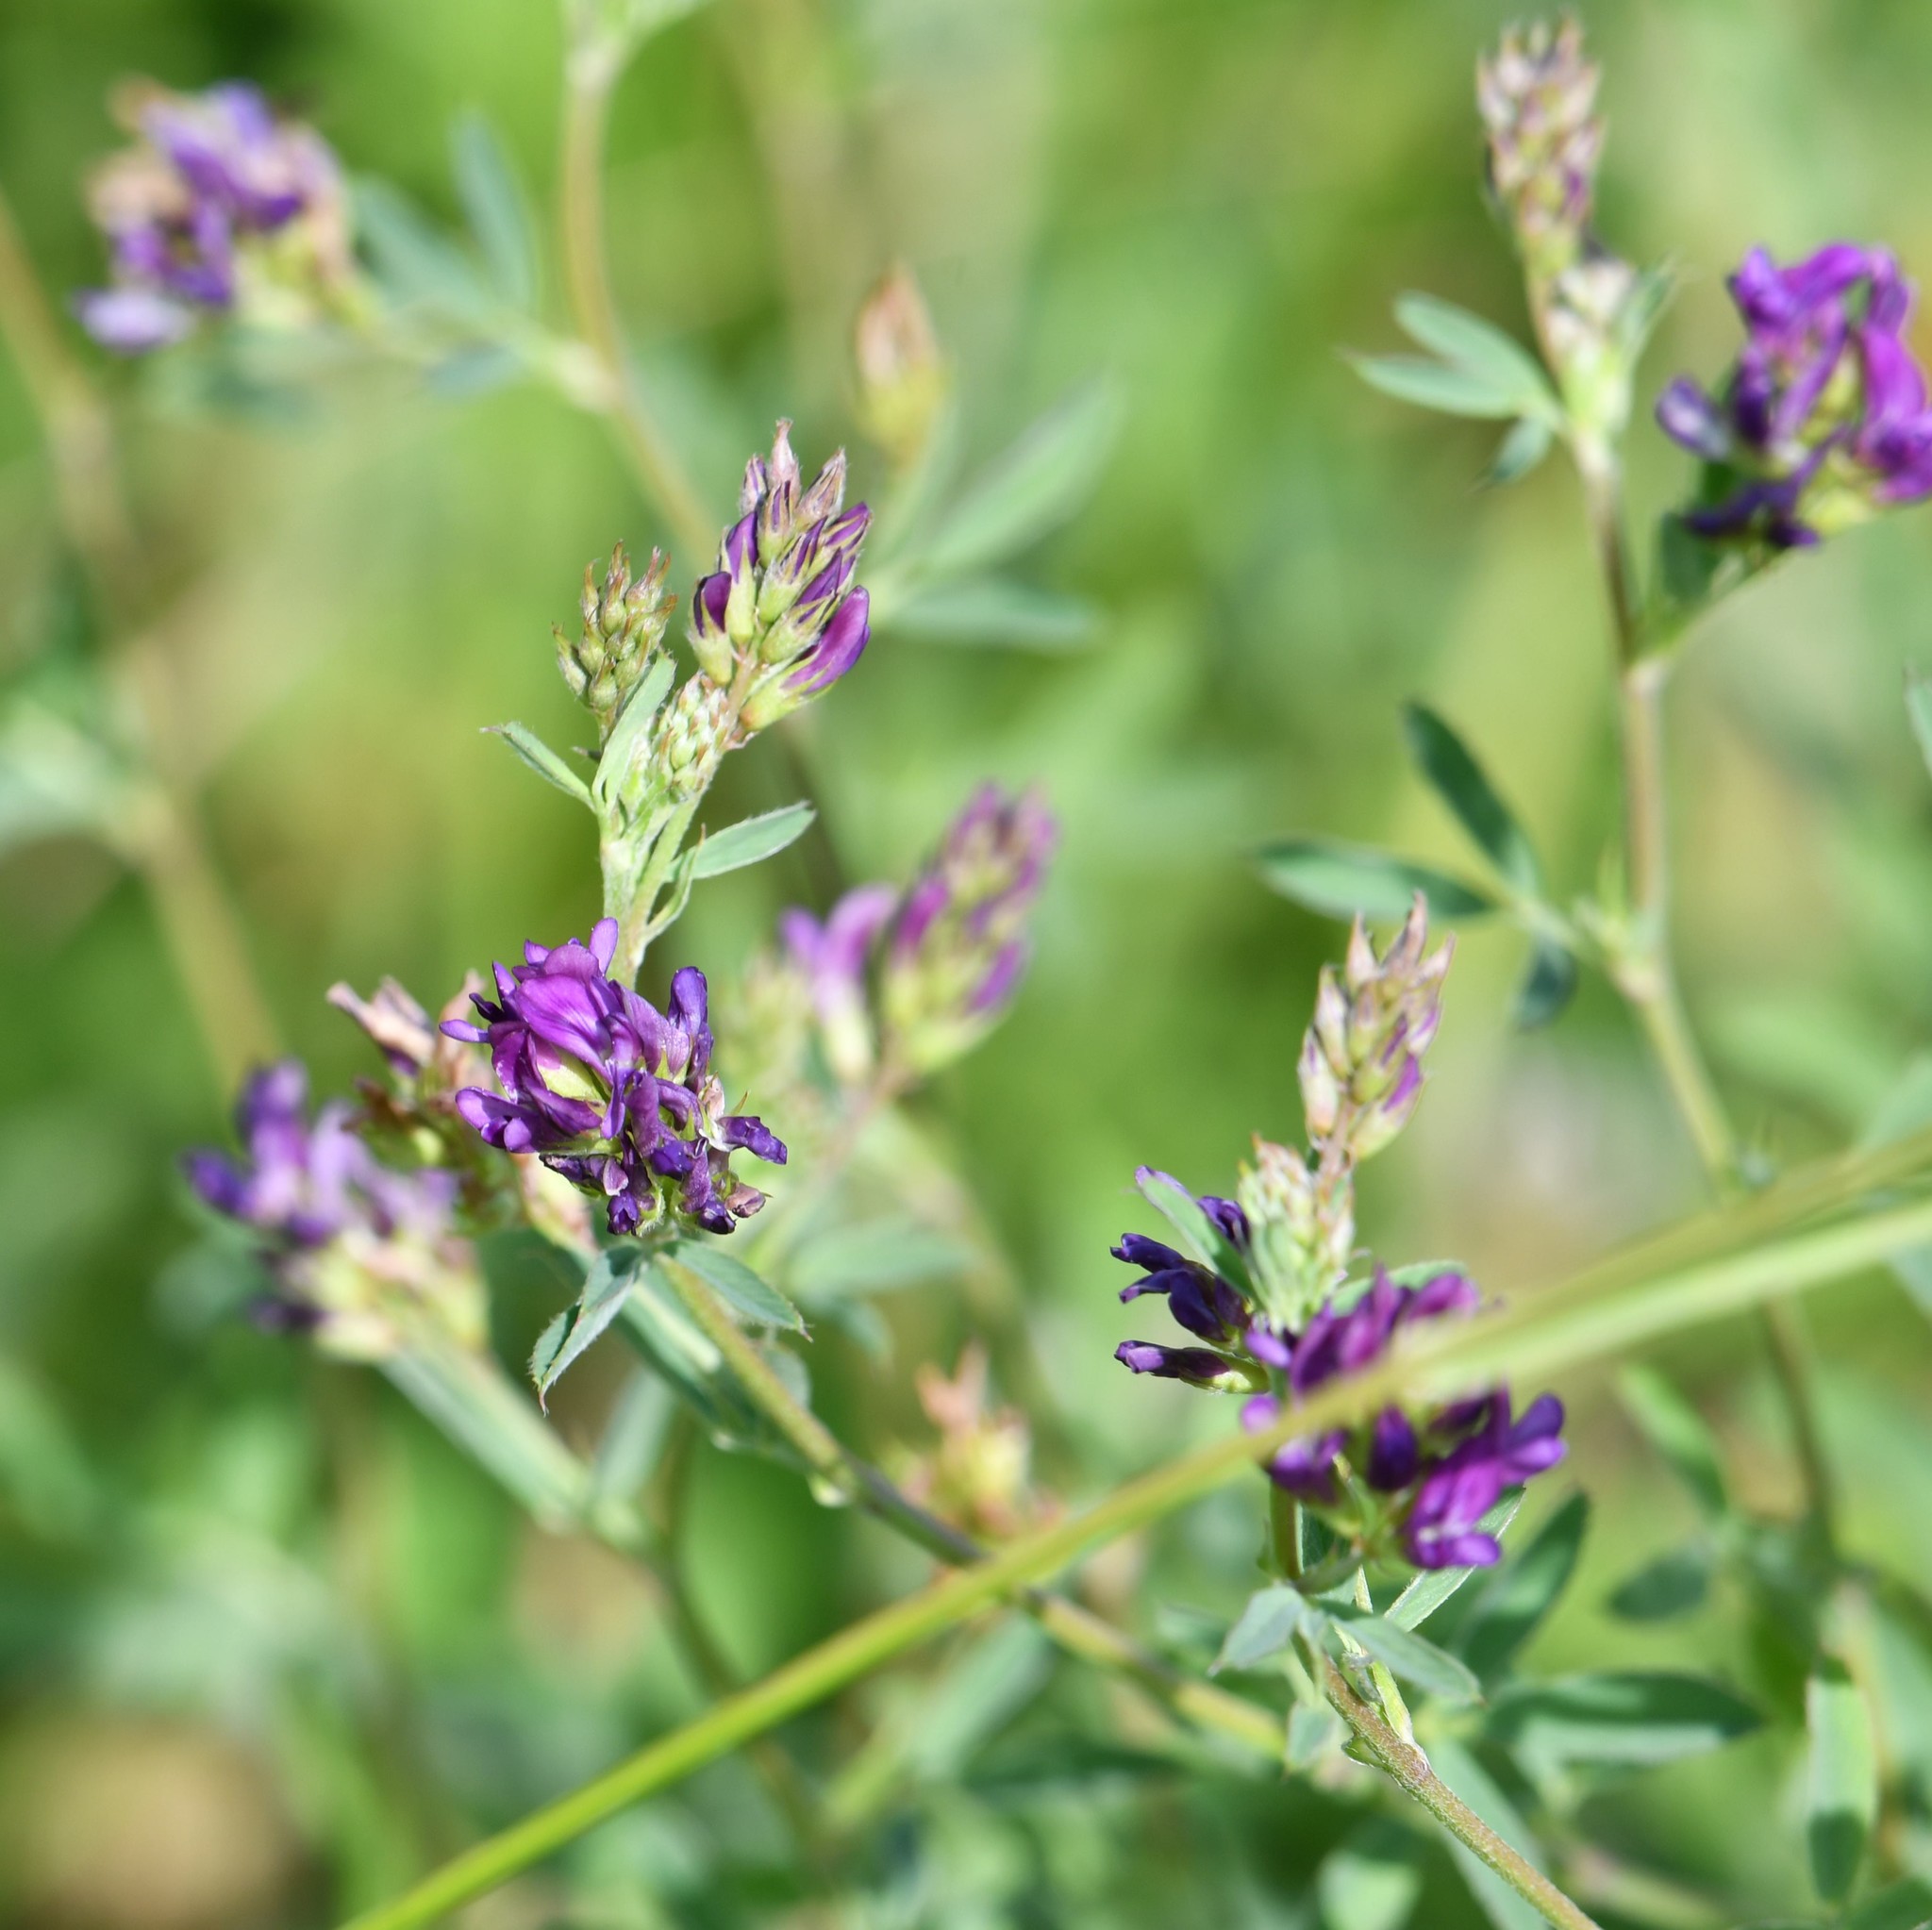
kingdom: Plantae
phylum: Tracheophyta
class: Magnoliopsida
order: Fabales
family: Fabaceae
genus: Medicago
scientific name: Medicago sativa
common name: Alfalfa
